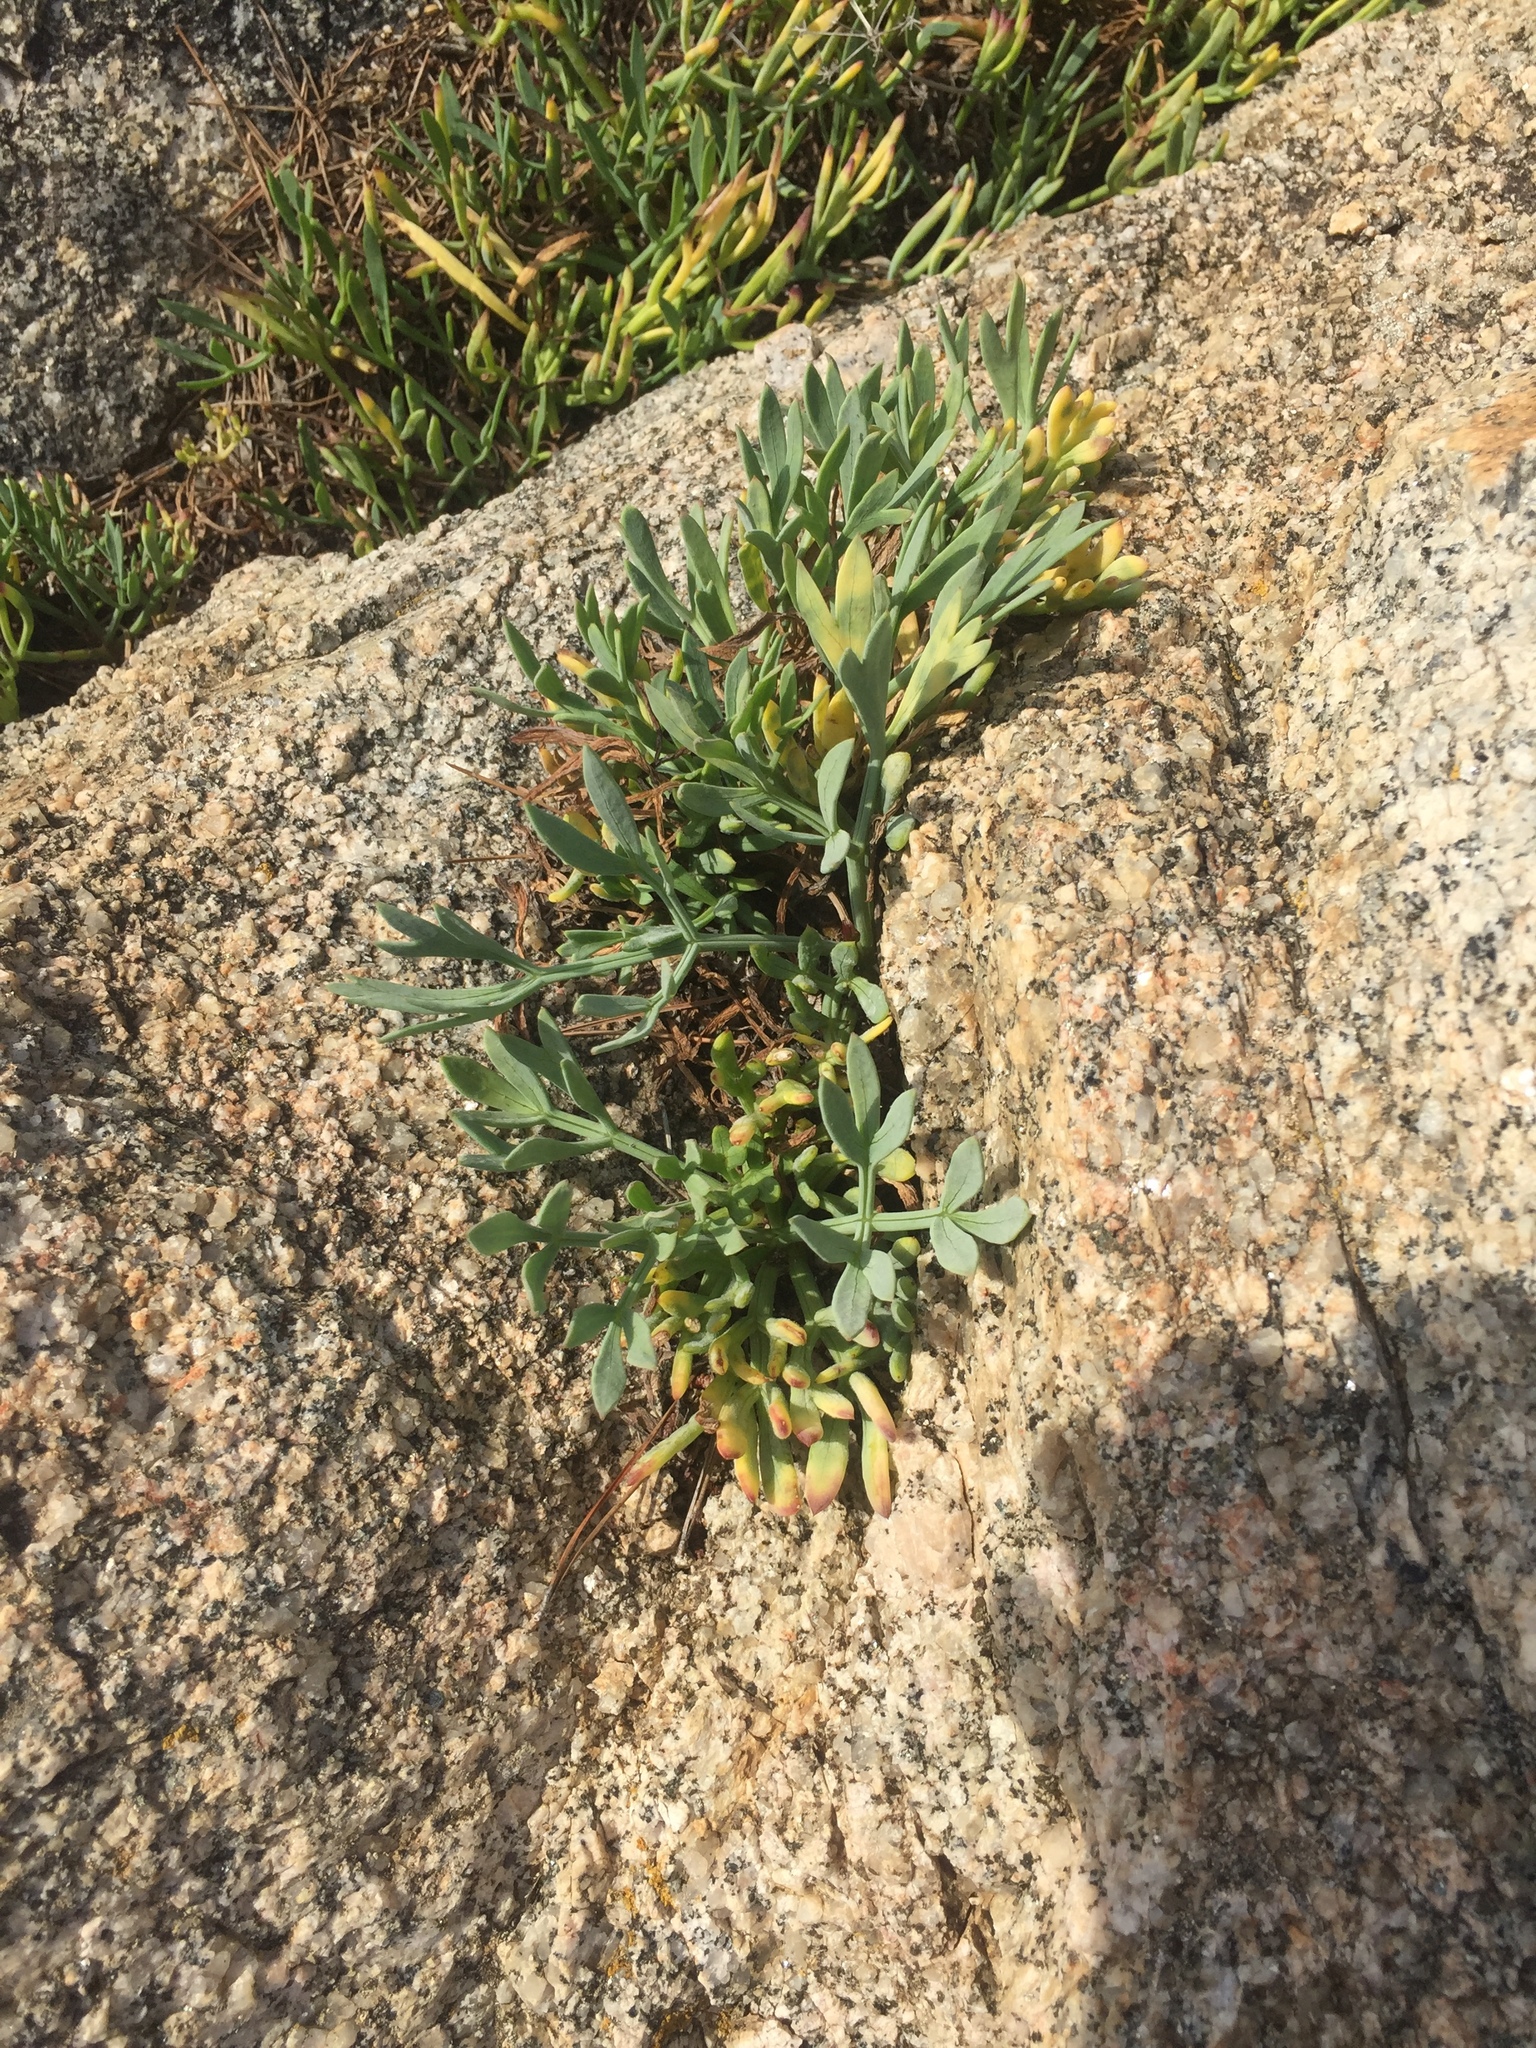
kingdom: Plantae
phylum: Tracheophyta
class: Magnoliopsida
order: Apiales
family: Apiaceae
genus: Crithmum
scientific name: Crithmum maritimum
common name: Rock samphire
